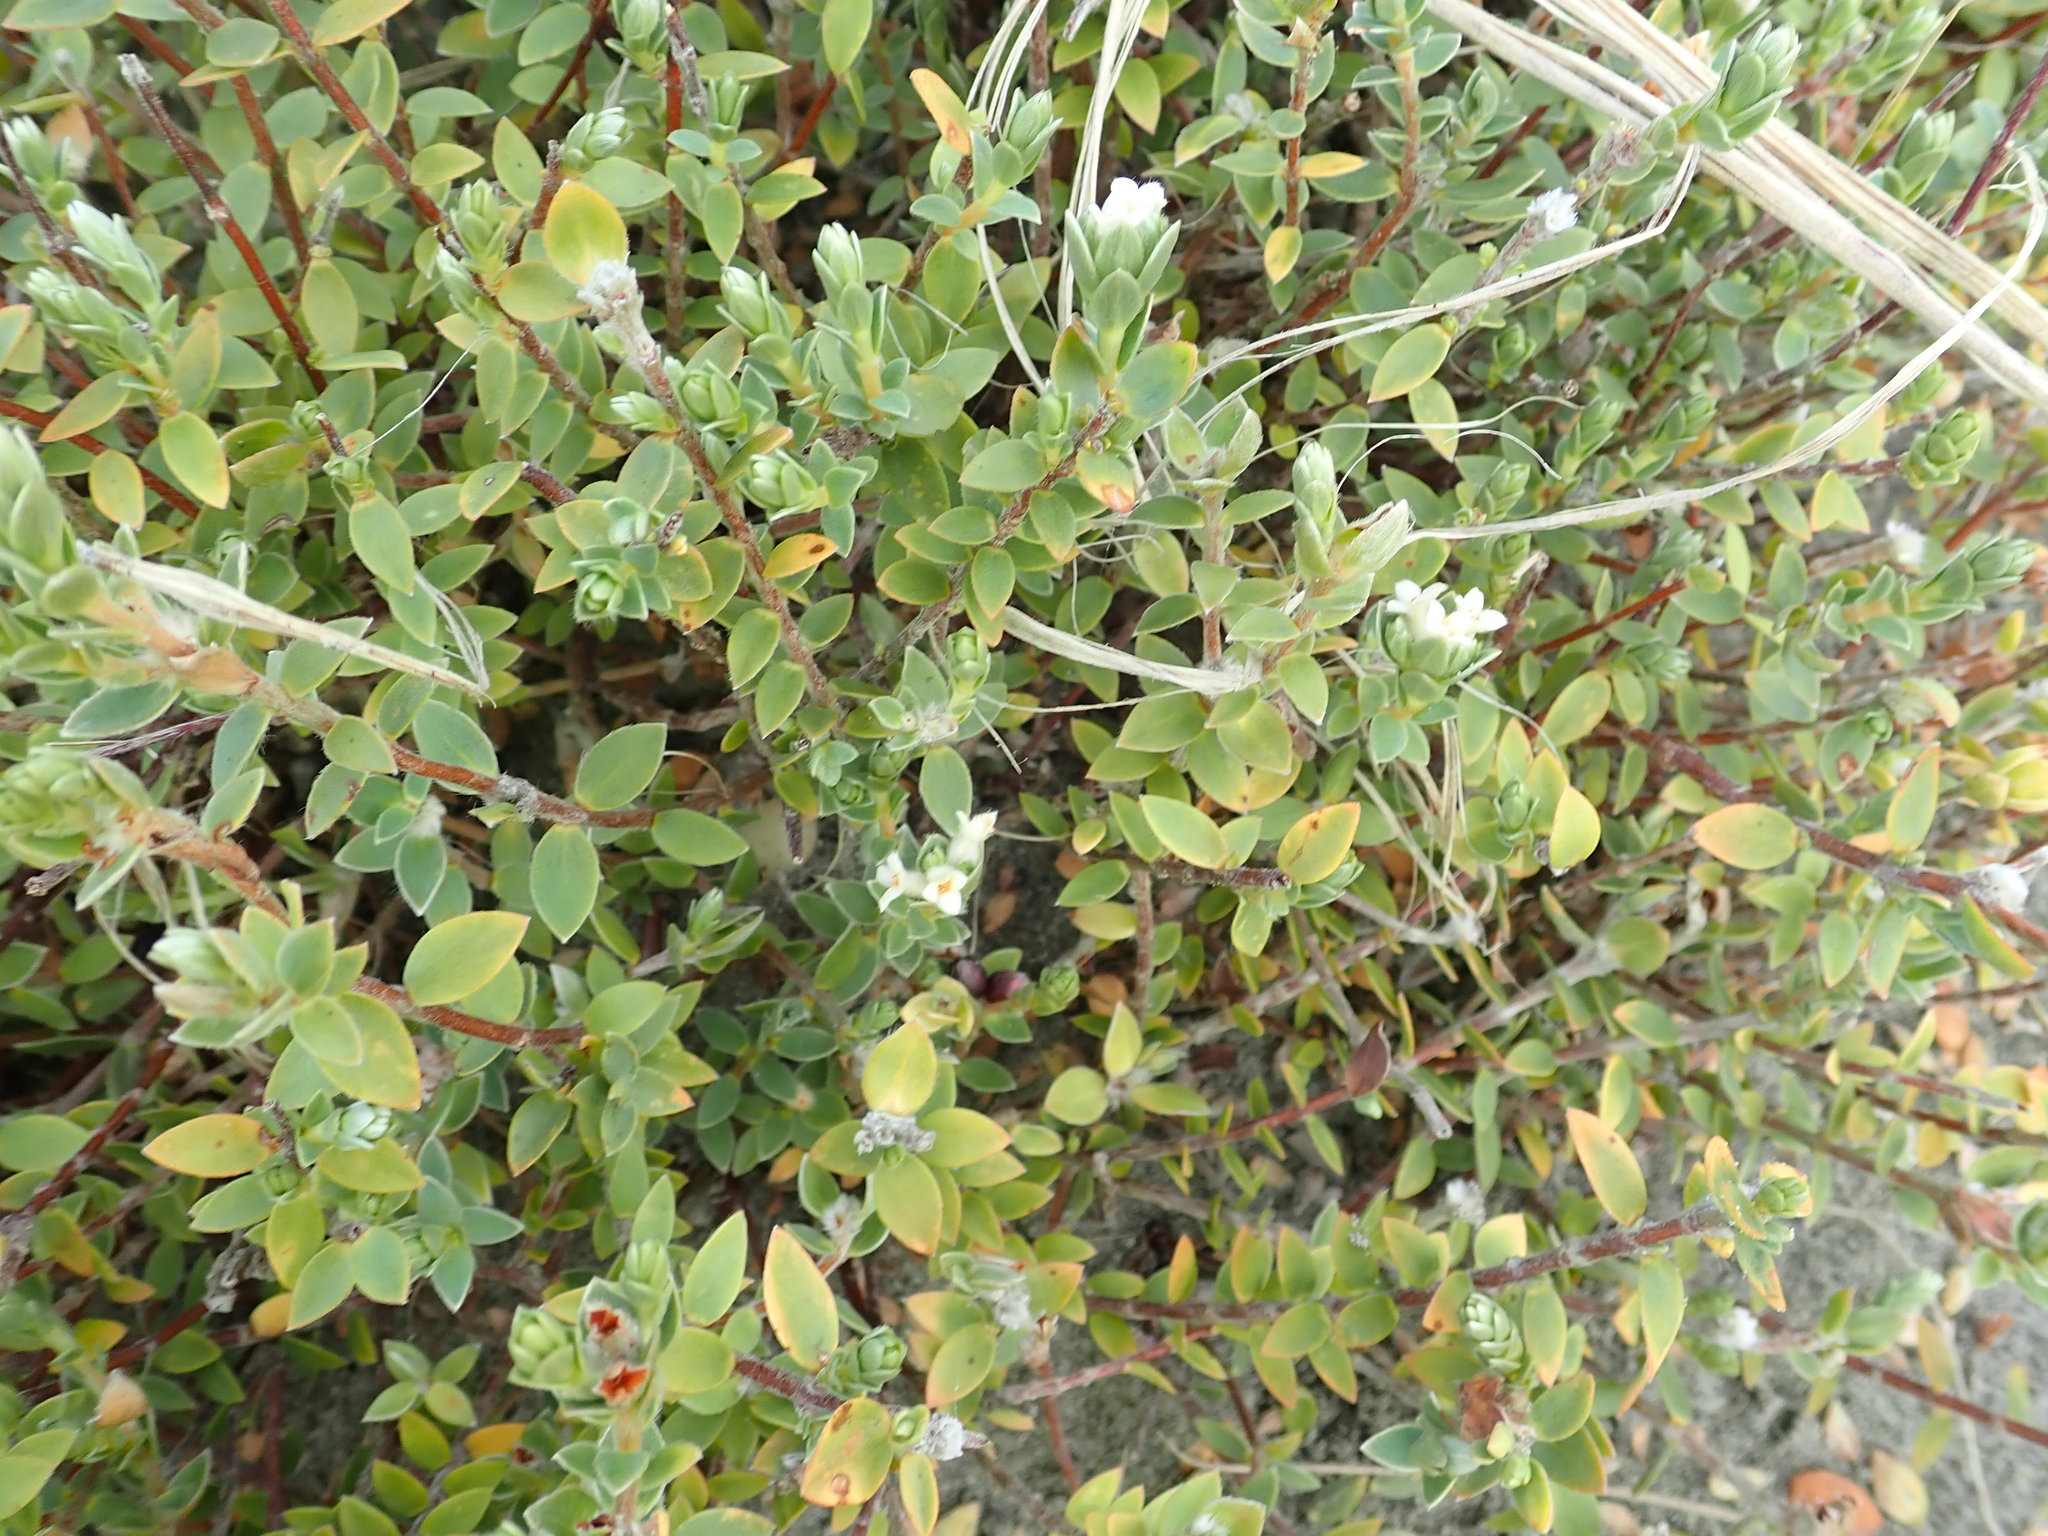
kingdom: Plantae
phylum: Tracheophyta
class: Magnoliopsida
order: Malvales
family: Thymelaeaceae
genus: Pimelea
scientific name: Pimelea villosa
